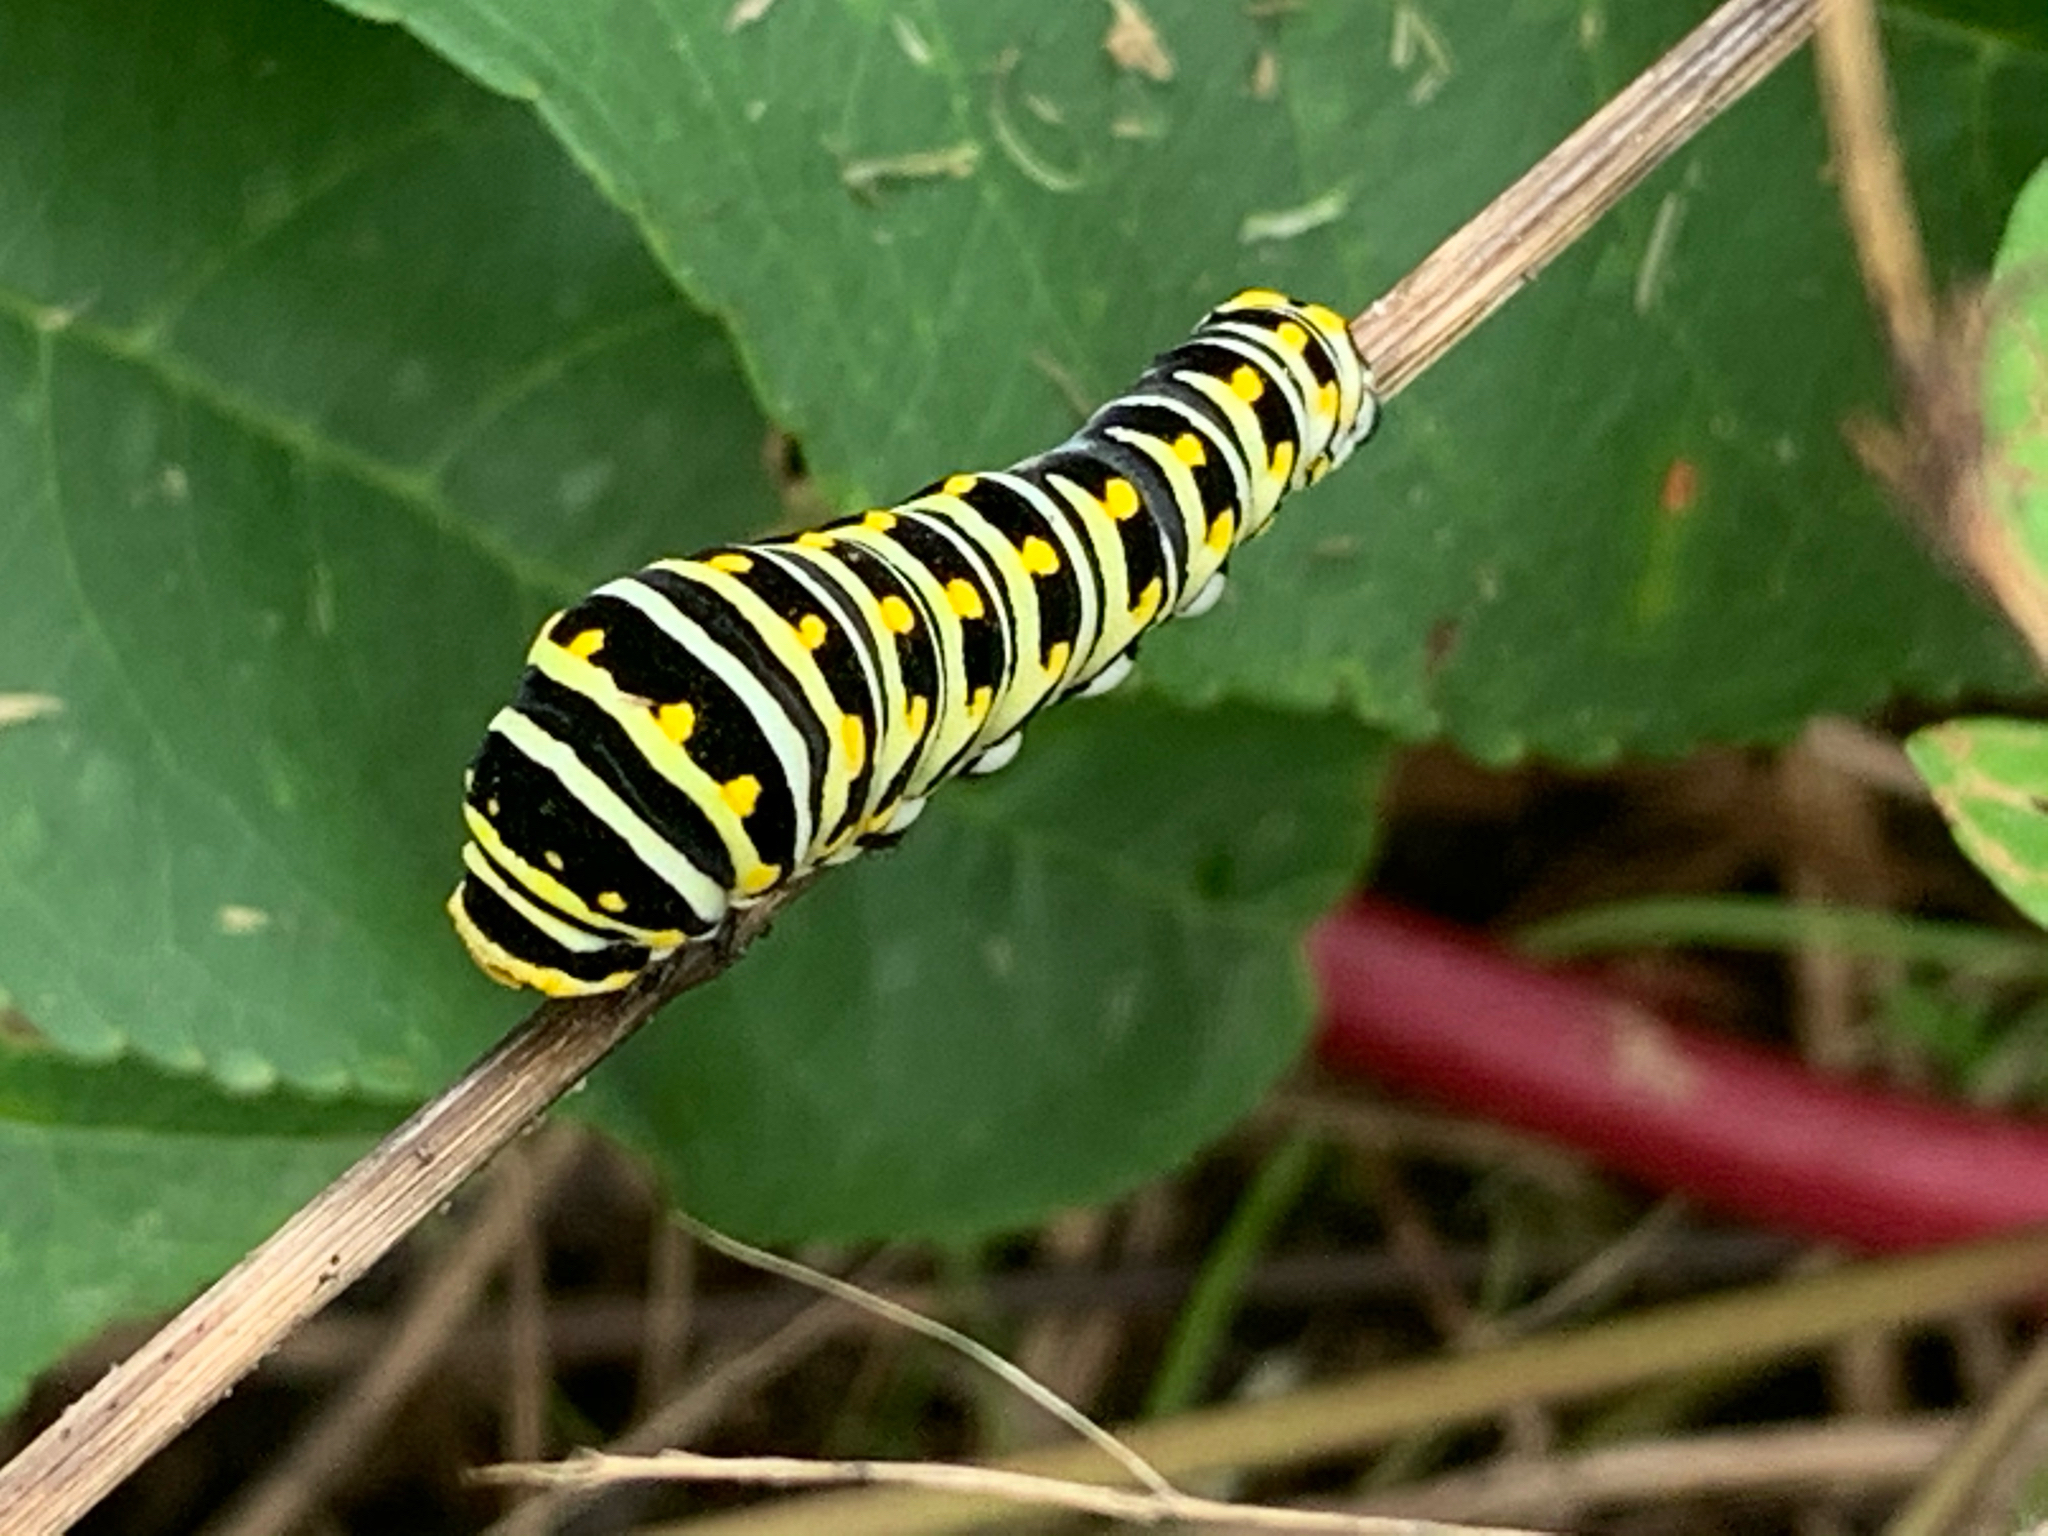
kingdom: Animalia
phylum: Arthropoda
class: Insecta
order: Lepidoptera
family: Papilionidae
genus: Papilio
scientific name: Papilio polyxenes
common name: Black swallowtail
